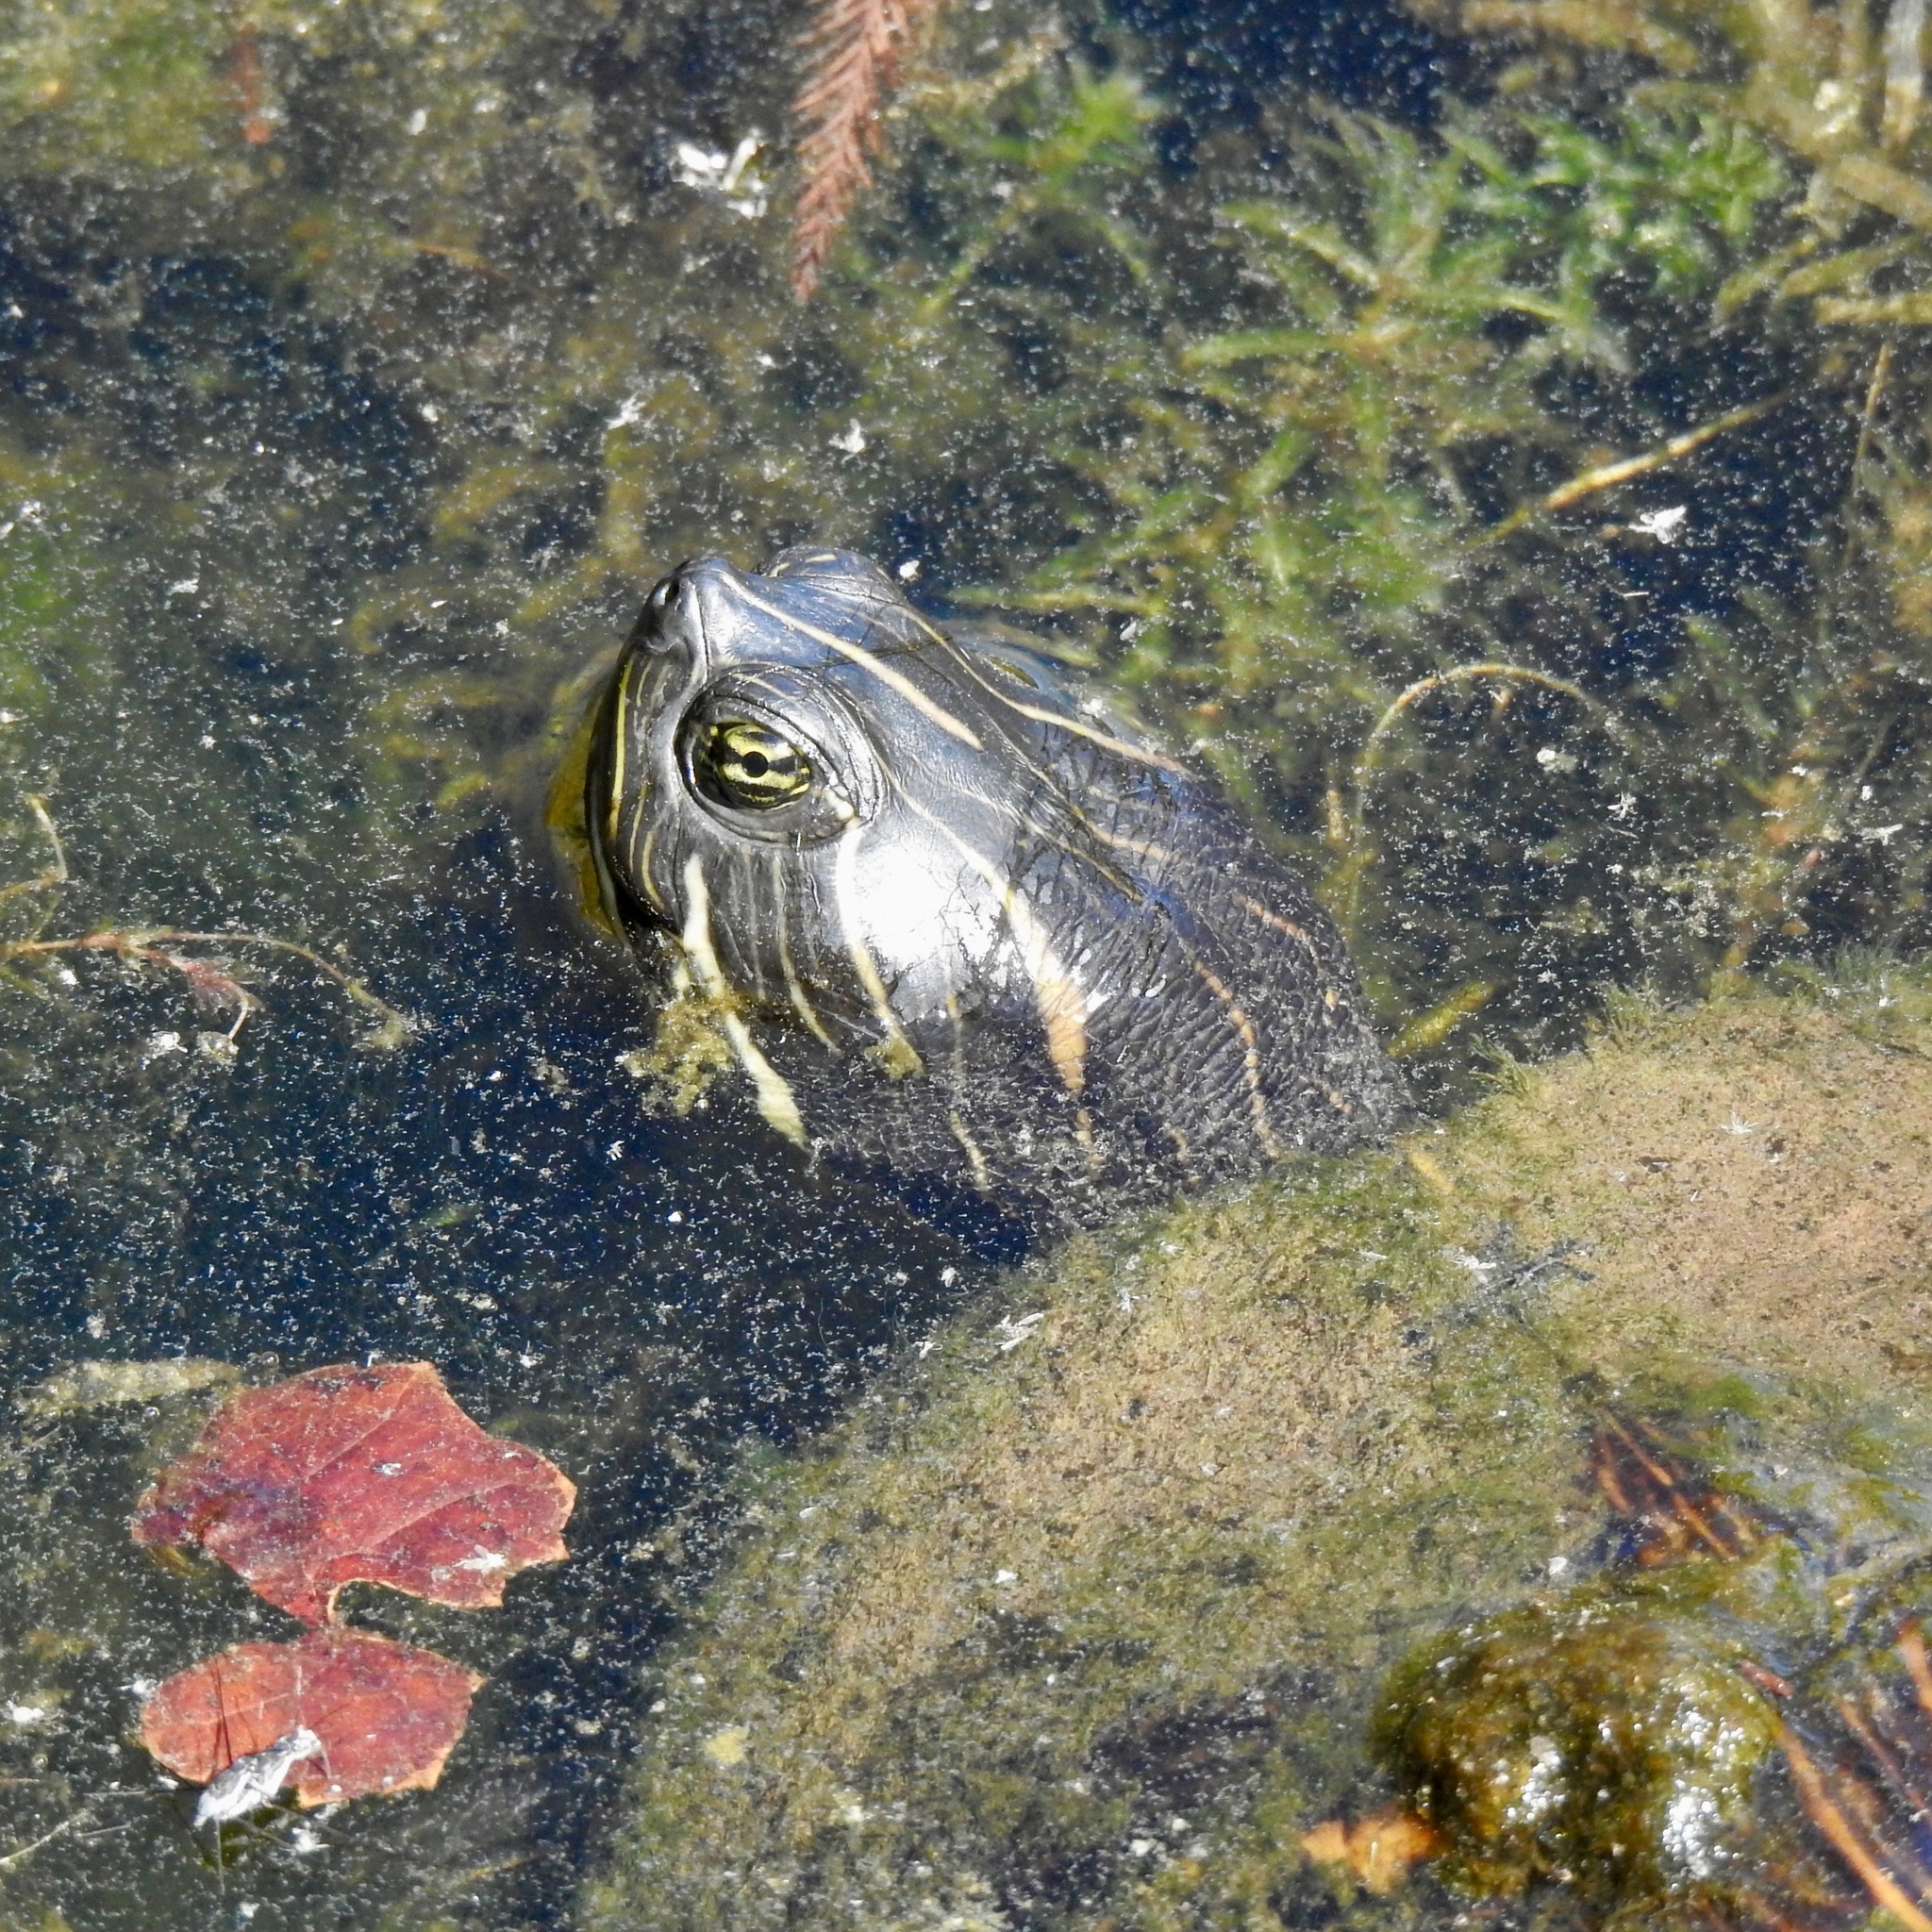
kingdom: Animalia
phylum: Chordata
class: Testudines
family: Emydidae
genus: Pseudemys
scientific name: Pseudemys concinna
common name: Eastern river cooter
